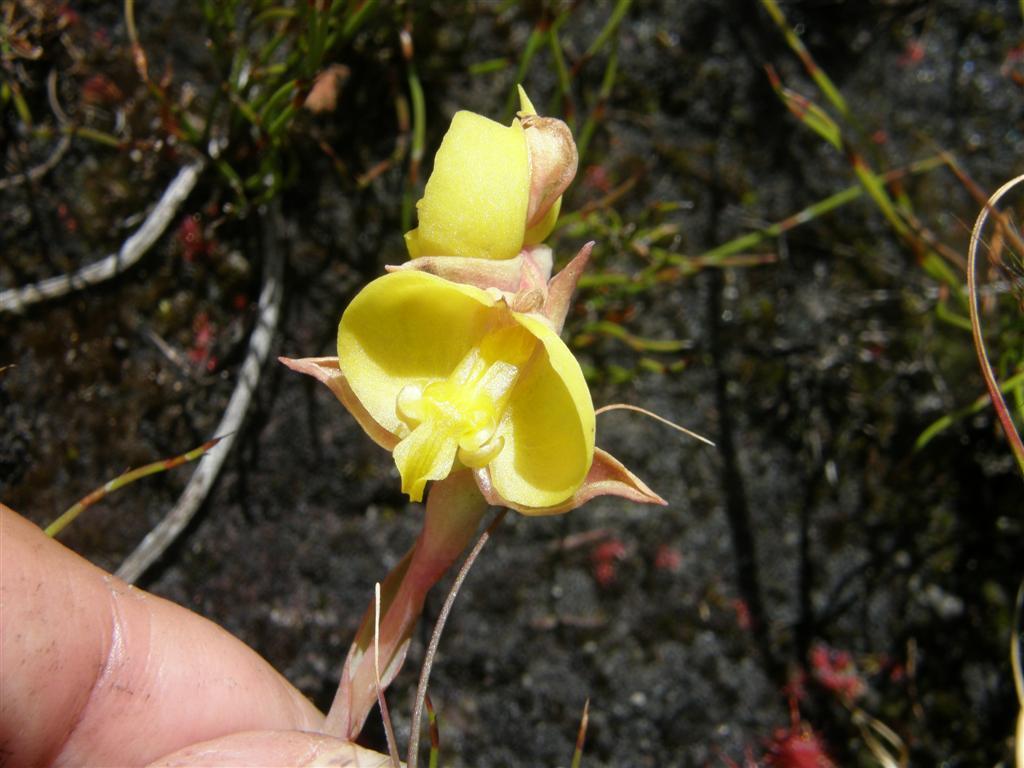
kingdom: Plantae
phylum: Tracheophyta
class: Liliopsida
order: Asparagales
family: Orchidaceae
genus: Pterygodium
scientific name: Pterygodium acutifolium
